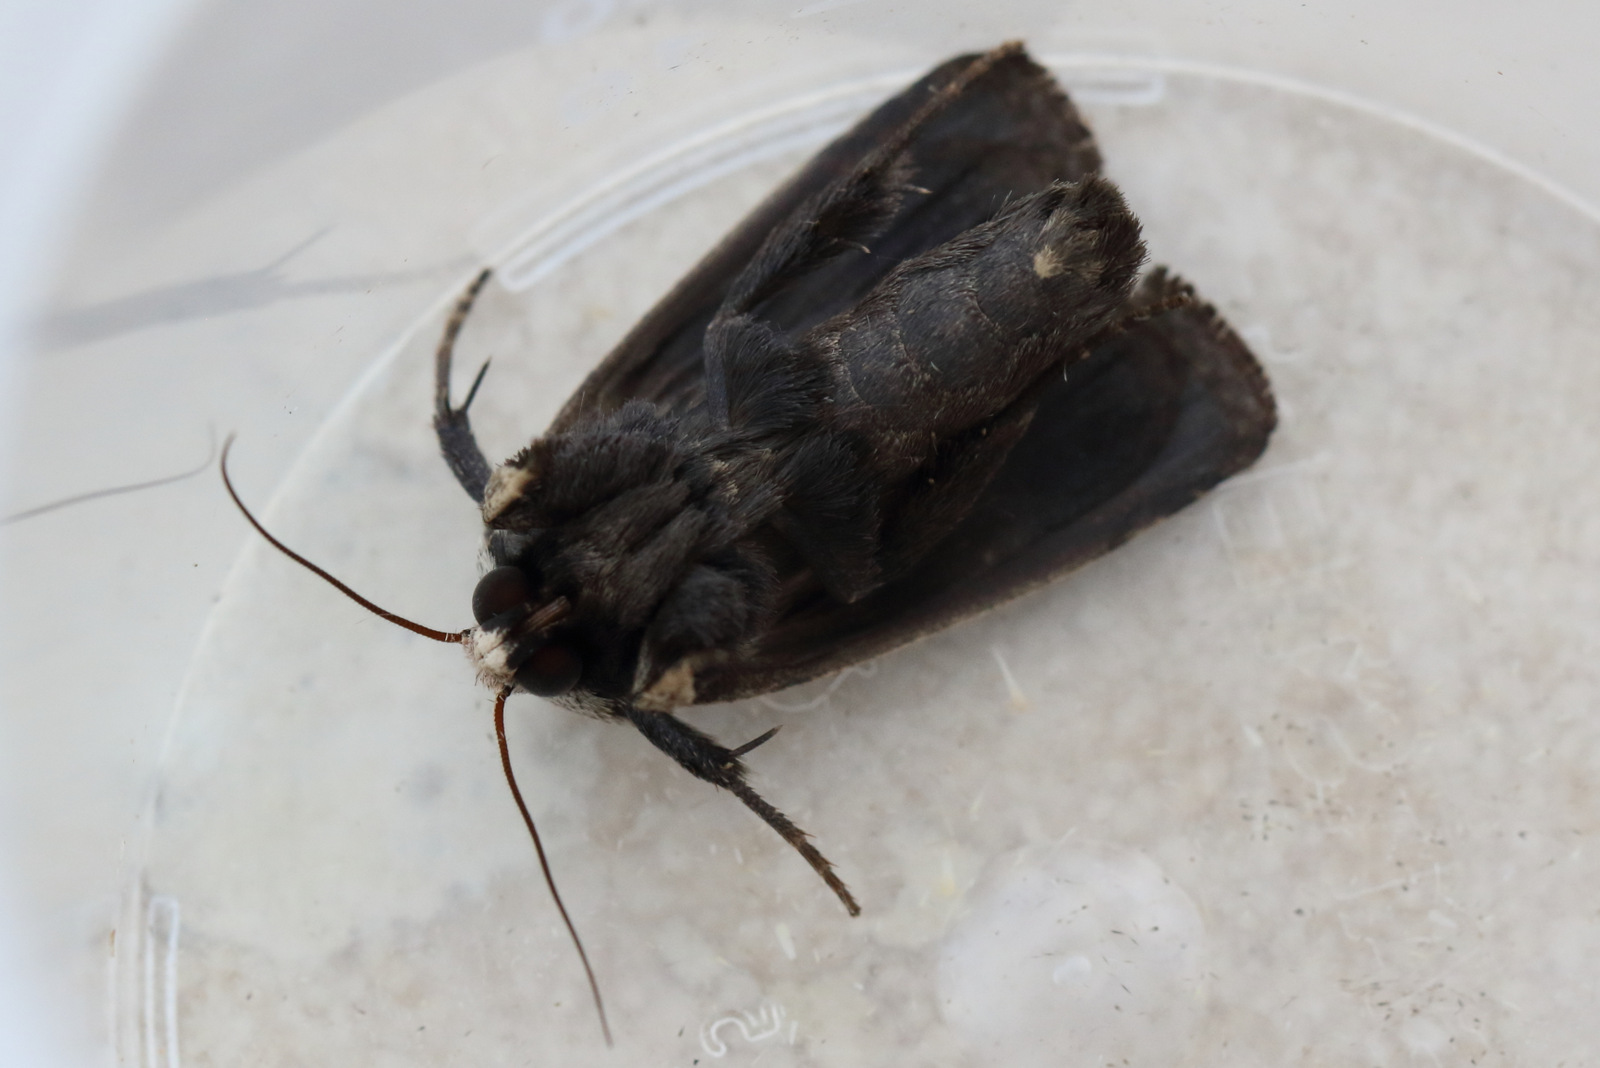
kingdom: Animalia
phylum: Arthropoda
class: Insecta
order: Lepidoptera
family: Noctuidae
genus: Proteuxoa
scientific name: Proteuxoa tibiata
